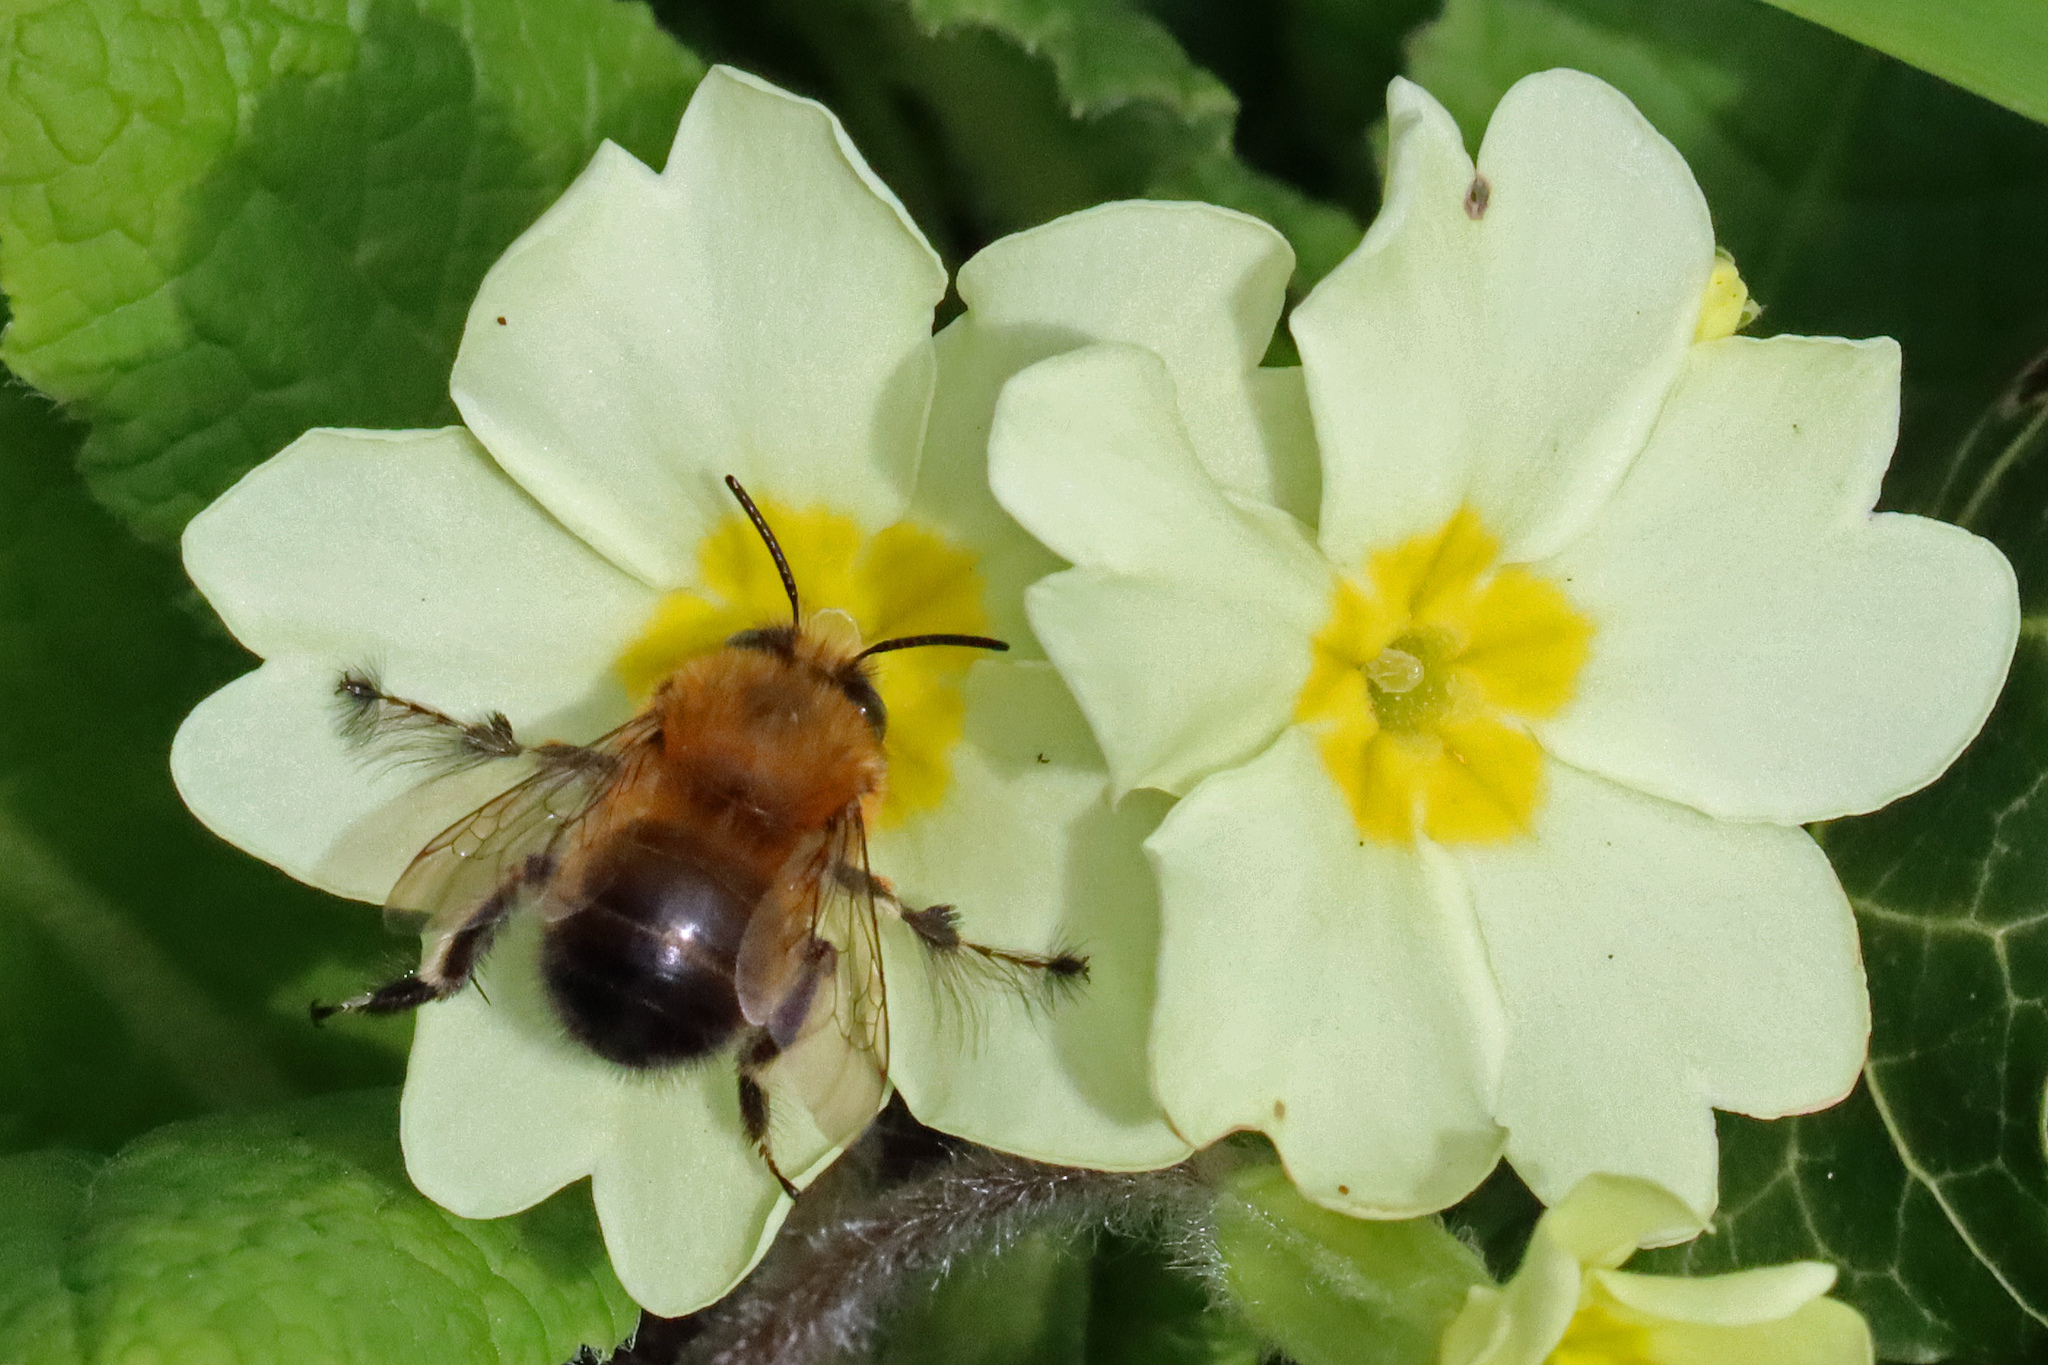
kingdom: Animalia
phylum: Arthropoda
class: Insecta
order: Hymenoptera
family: Apidae
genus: Anthophora
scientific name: Anthophora plumipes
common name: Hairy-footed flower bee
